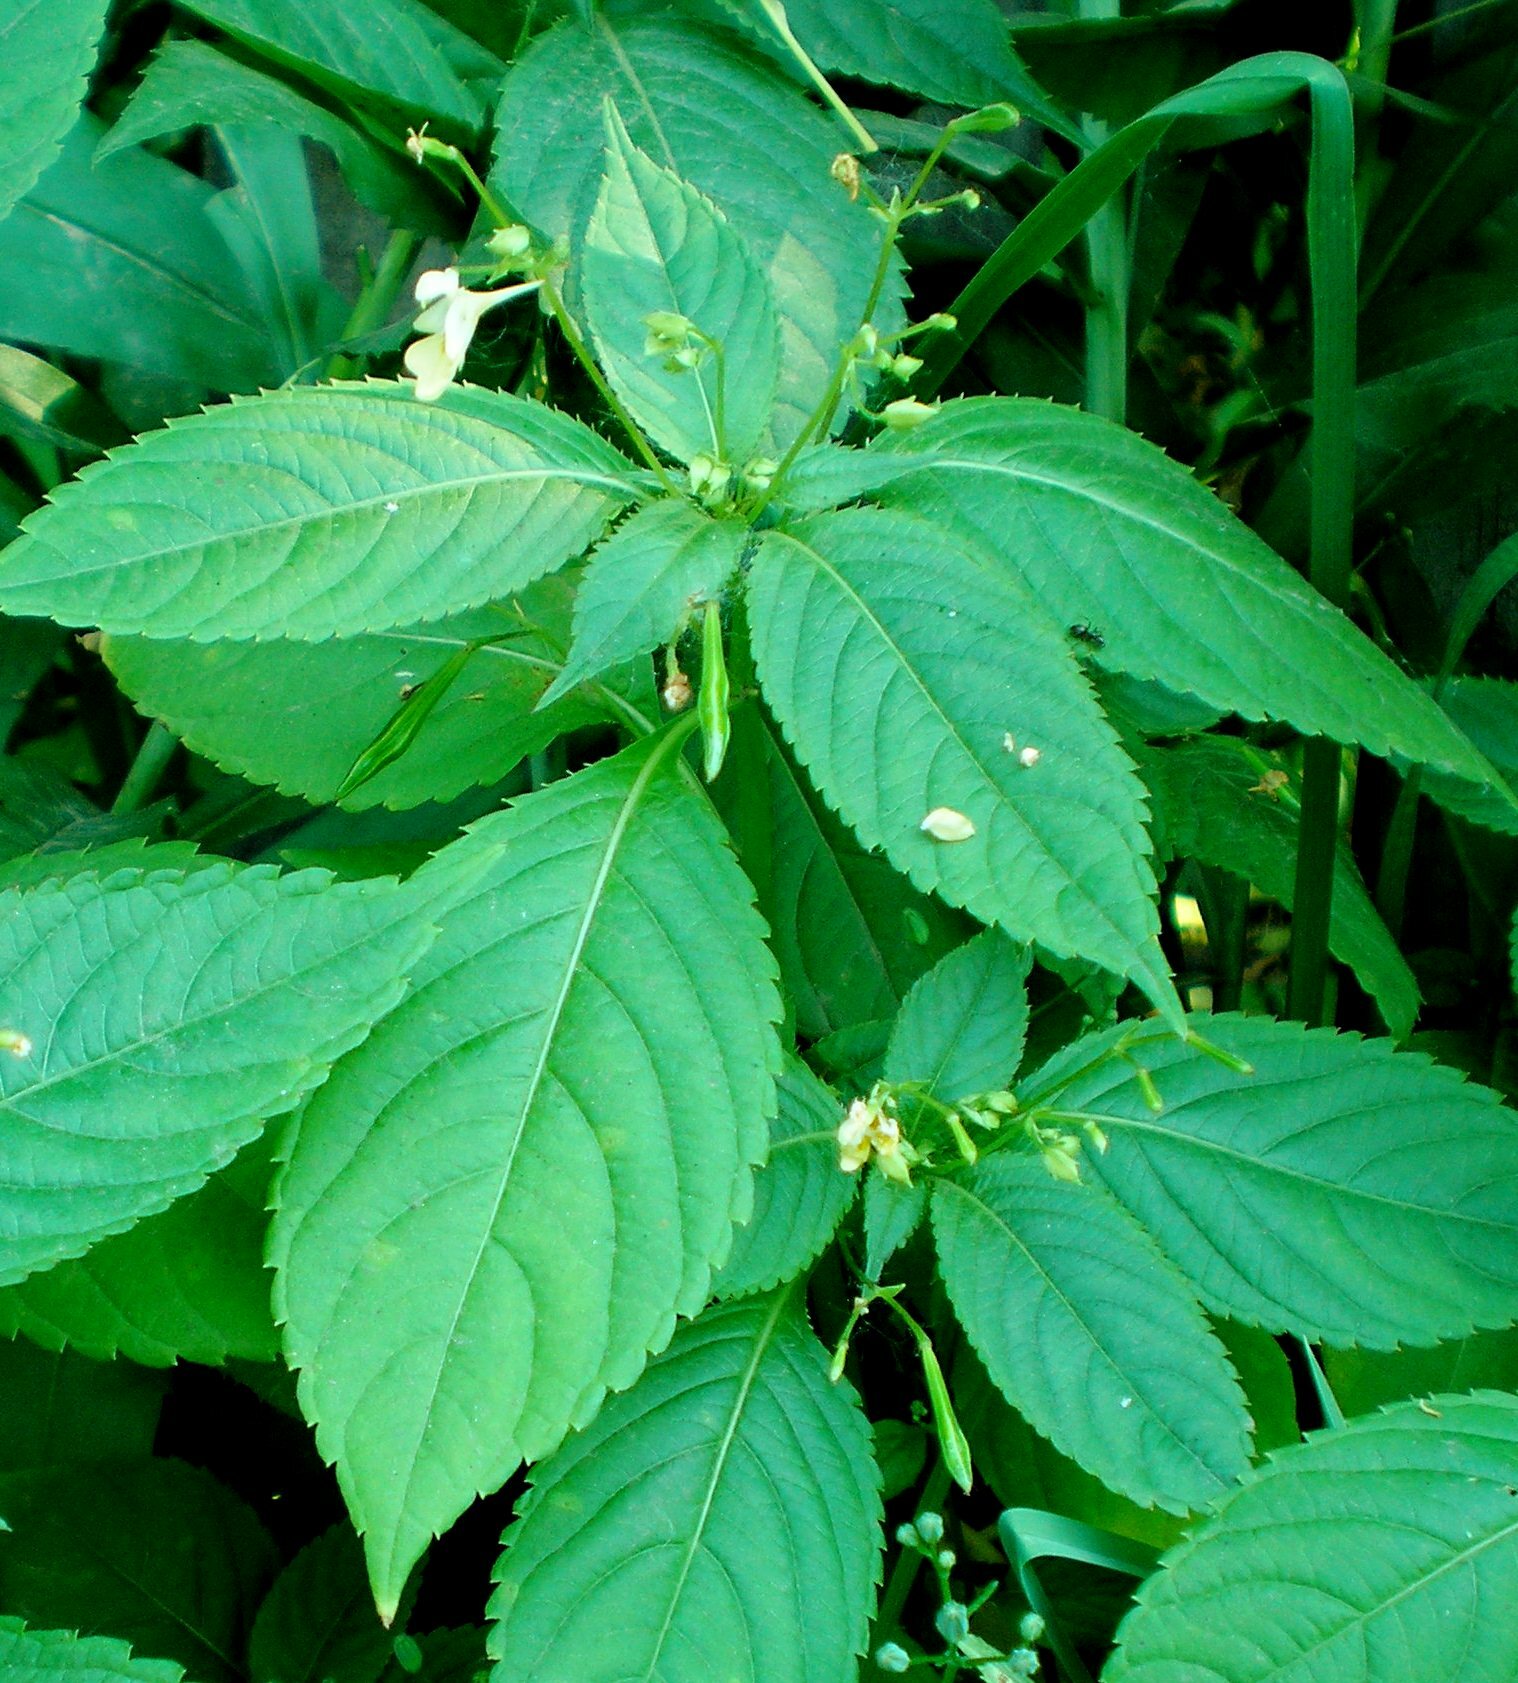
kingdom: Plantae
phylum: Tracheophyta
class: Magnoliopsida
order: Ericales
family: Balsaminaceae
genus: Impatiens
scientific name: Impatiens parviflora
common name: Small balsam
